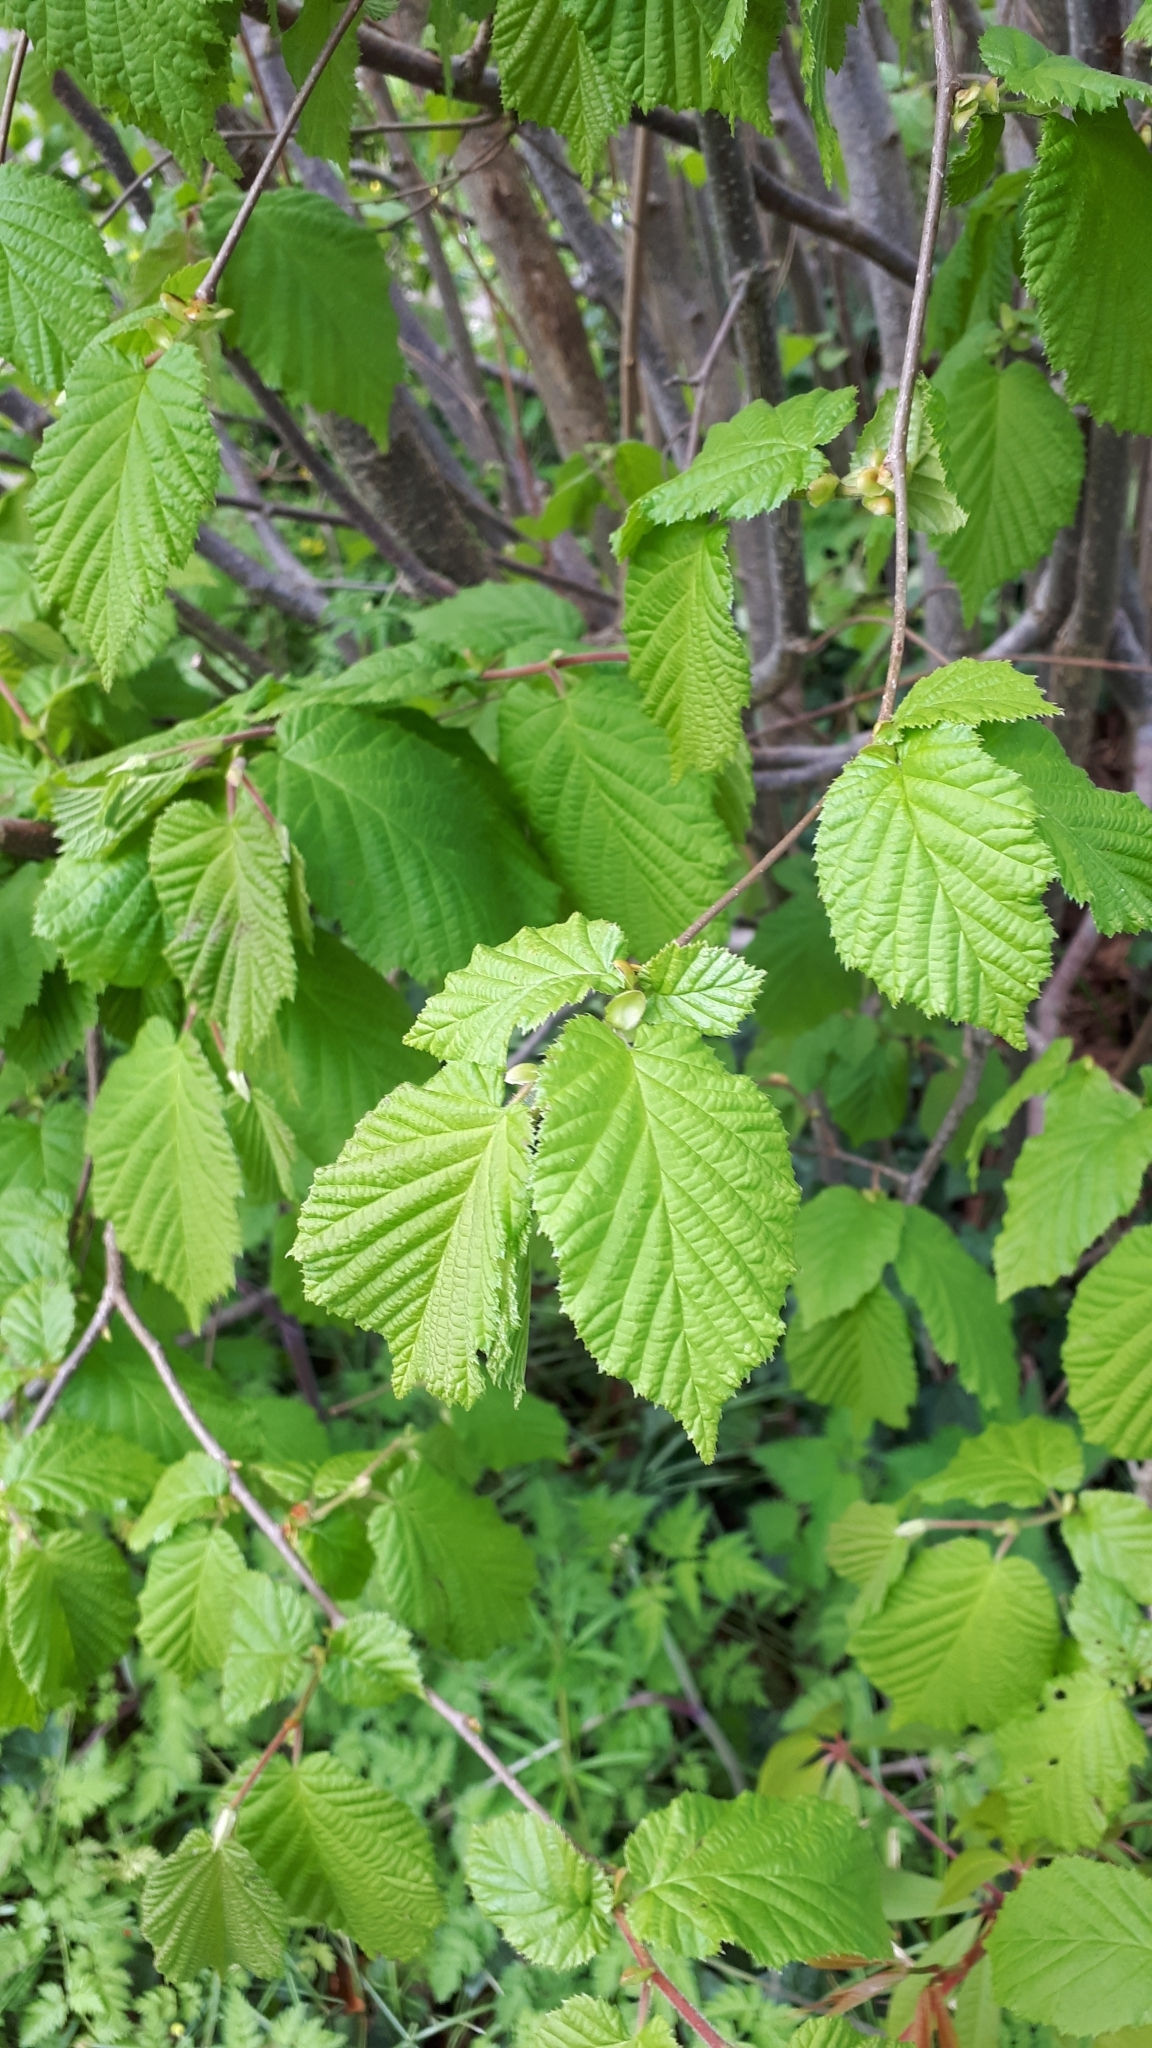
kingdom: Plantae
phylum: Tracheophyta
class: Magnoliopsida
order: Fagales
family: Betulaceae
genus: Corylus
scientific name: Corylus avellana
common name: European hazel
